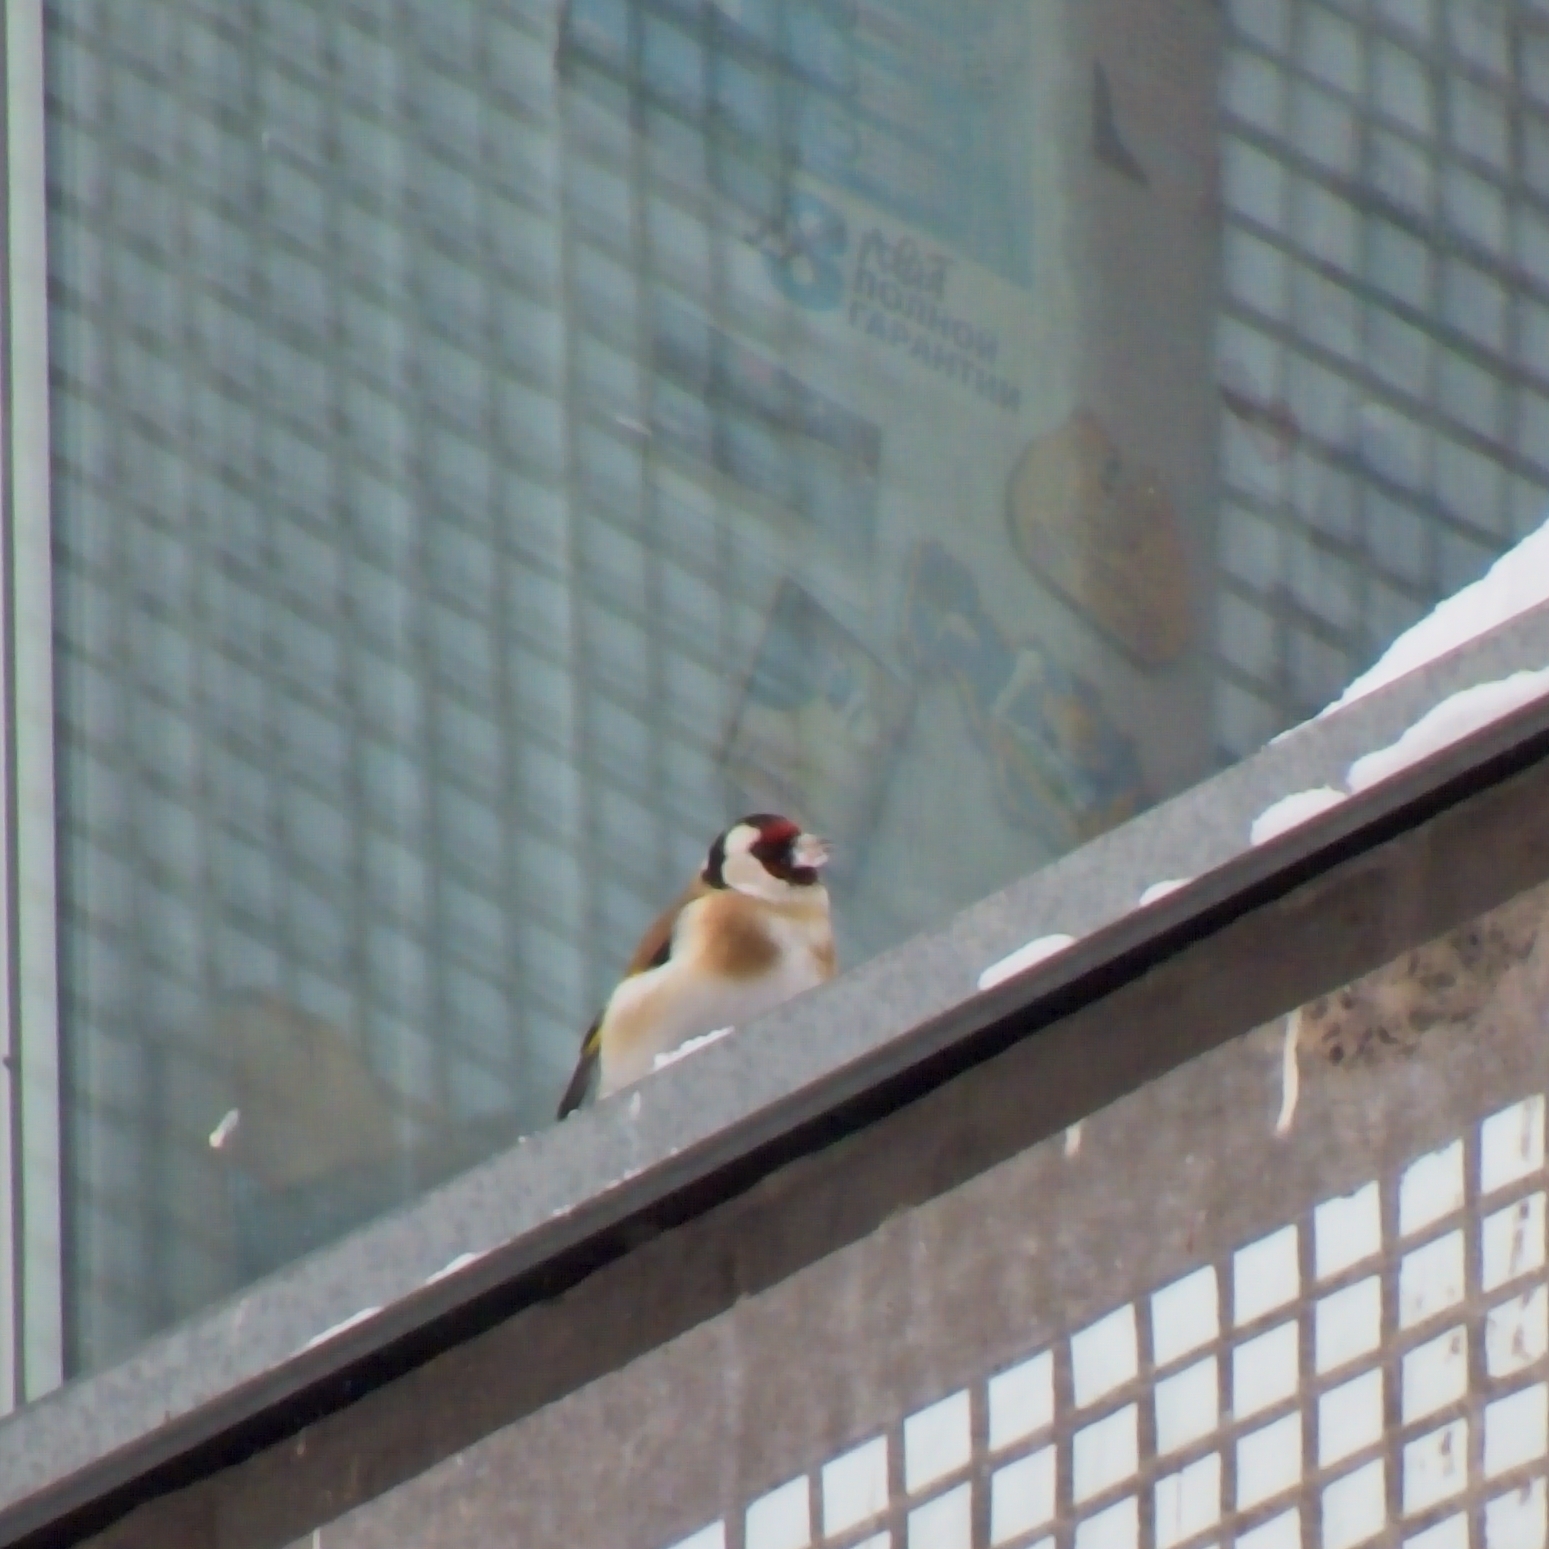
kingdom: Animalia
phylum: Chordata
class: Aves
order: Passeriformes
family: Fringillidae
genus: Carduelis
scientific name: Carduelis carduelis
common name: European goldfinch
